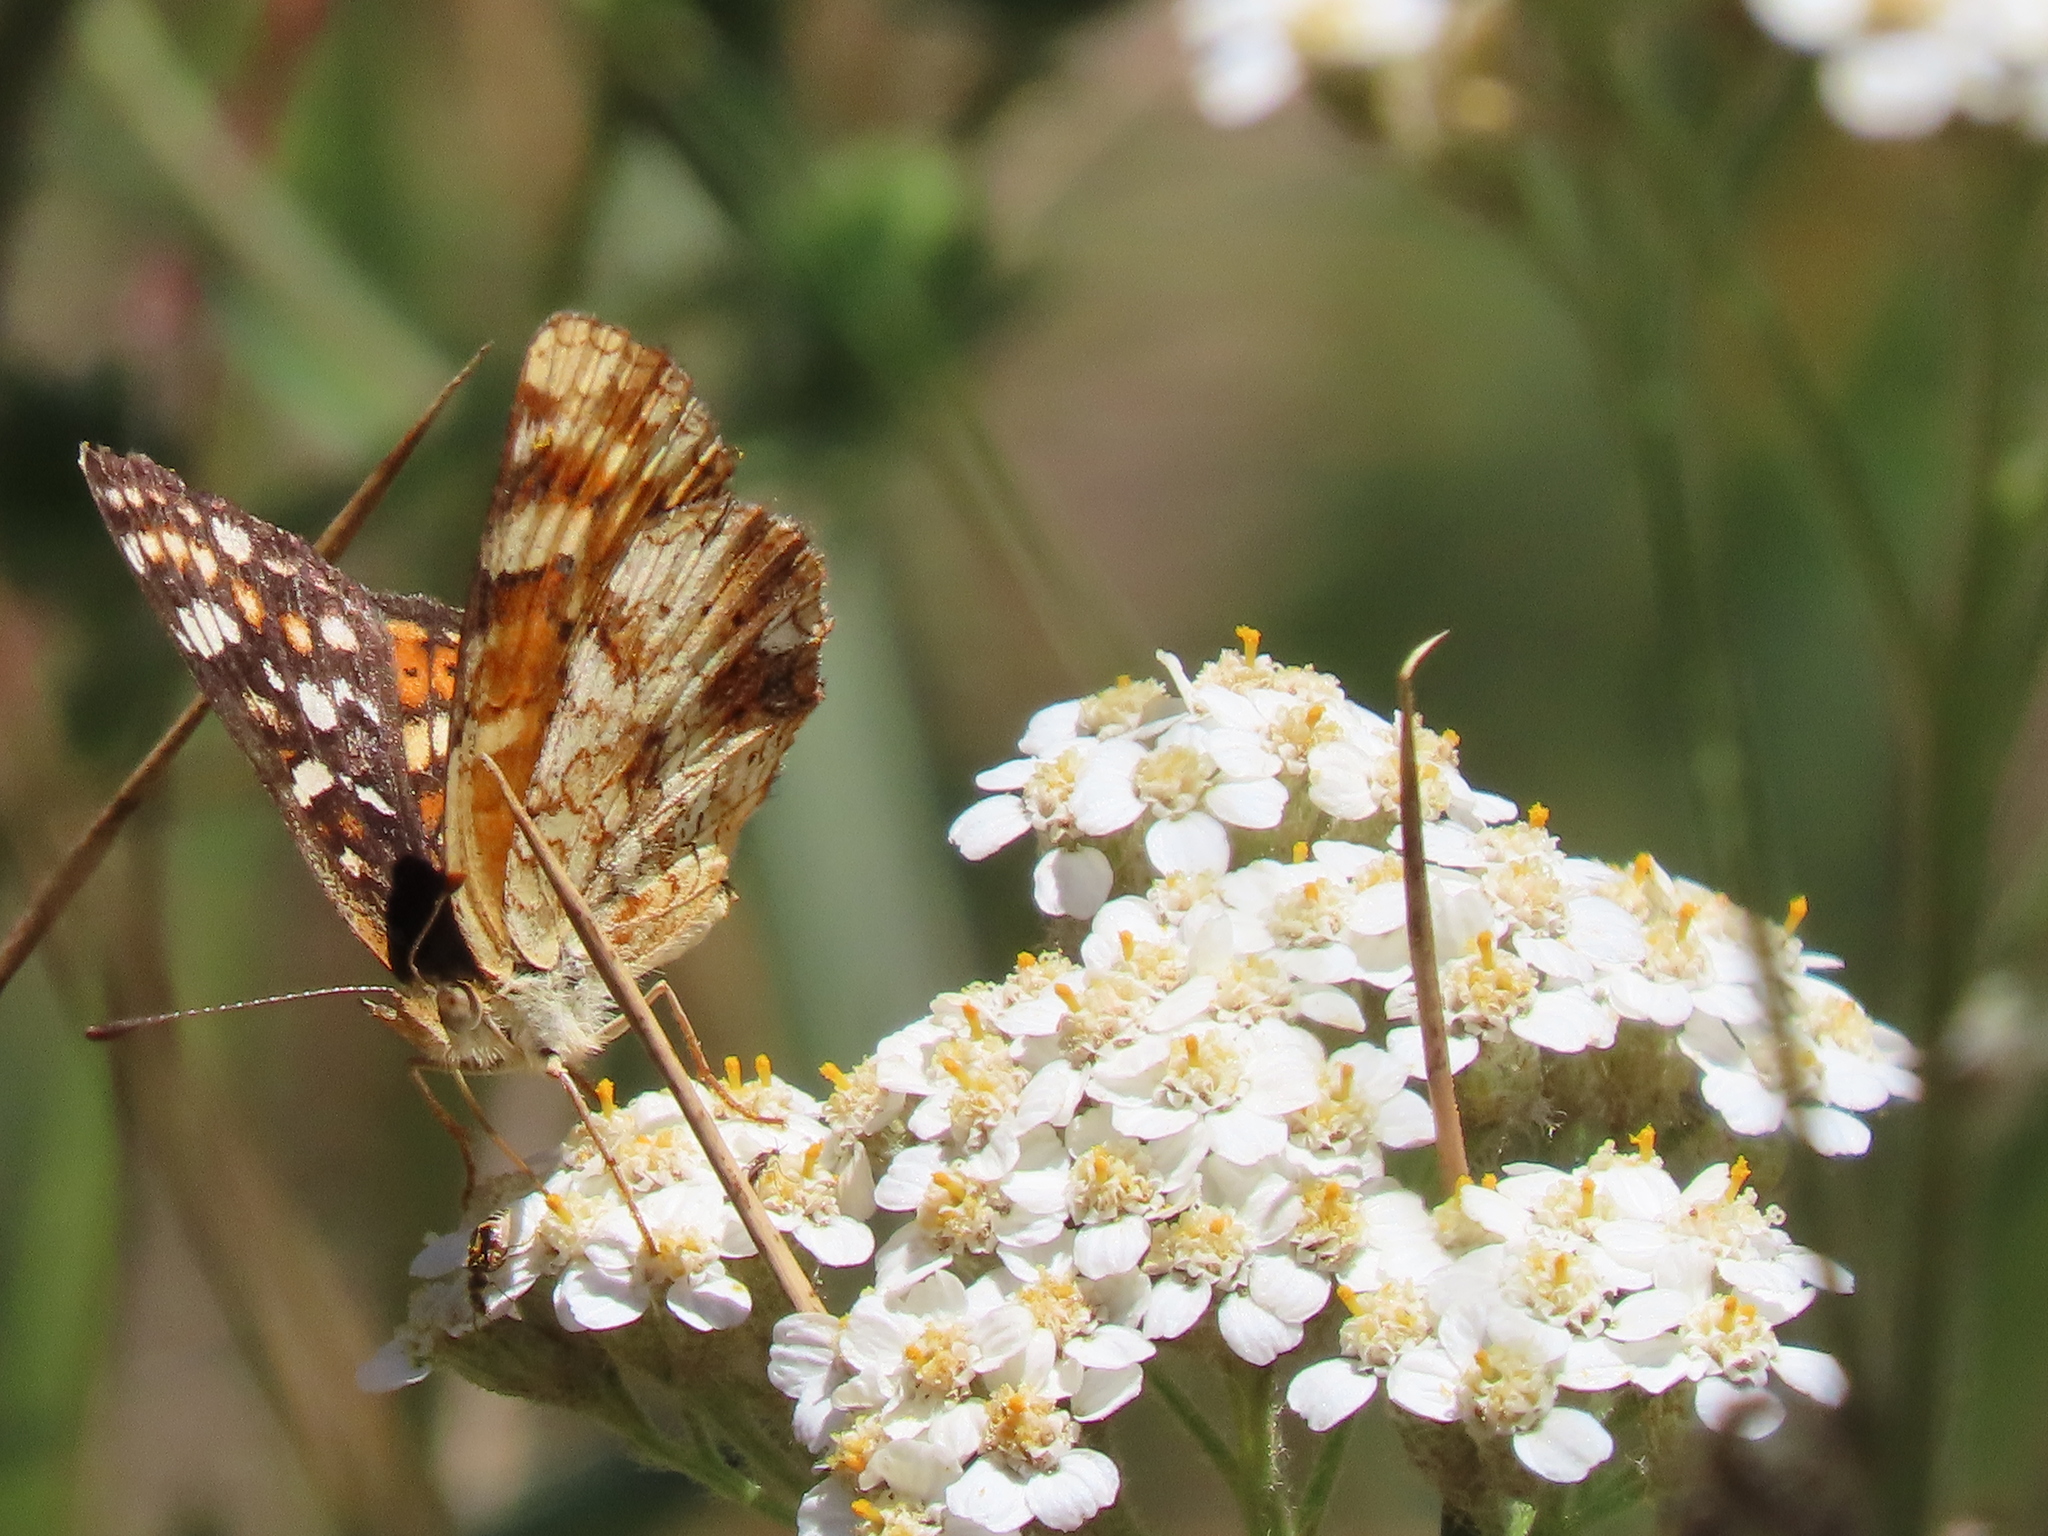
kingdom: Animalia
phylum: Arthropoda
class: Insecta
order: Lepidoptera
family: Nymphalidae
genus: Phyciodes
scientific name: Phyciodes tharos
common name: Pearl crescent
